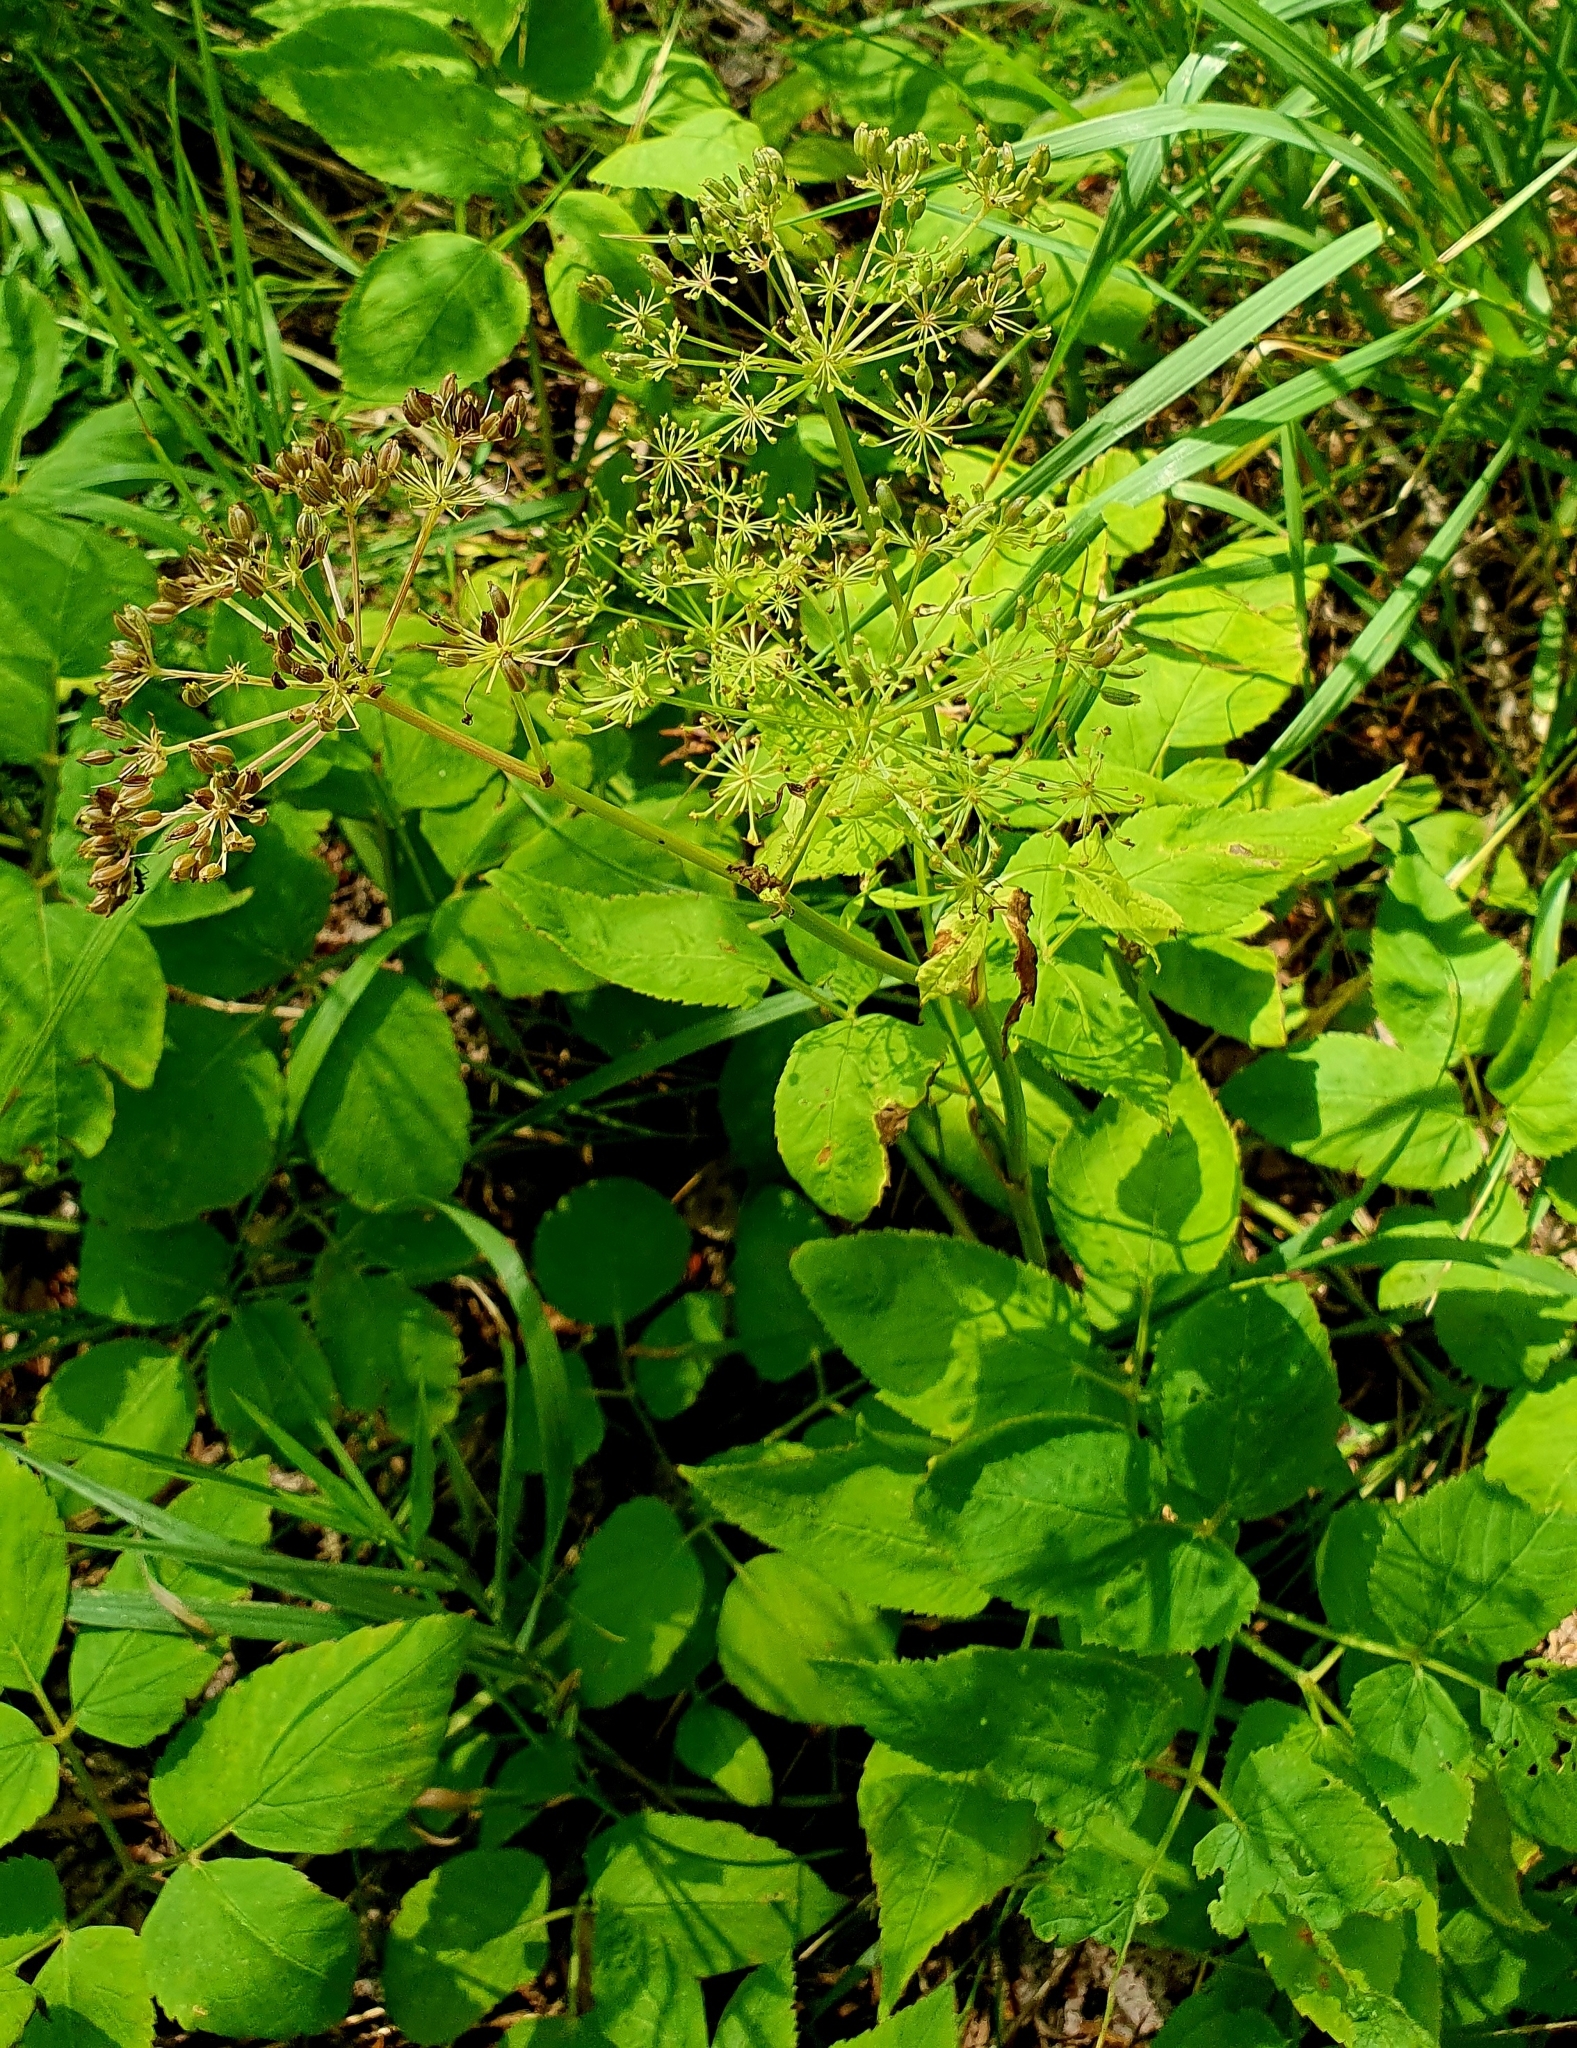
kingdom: Plantae
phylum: Tracheophyta
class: Magnoliopsida
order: Apiales
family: Apiaceae
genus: Aegopodium
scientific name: Aegopodium podagraria
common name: Ground-elder
